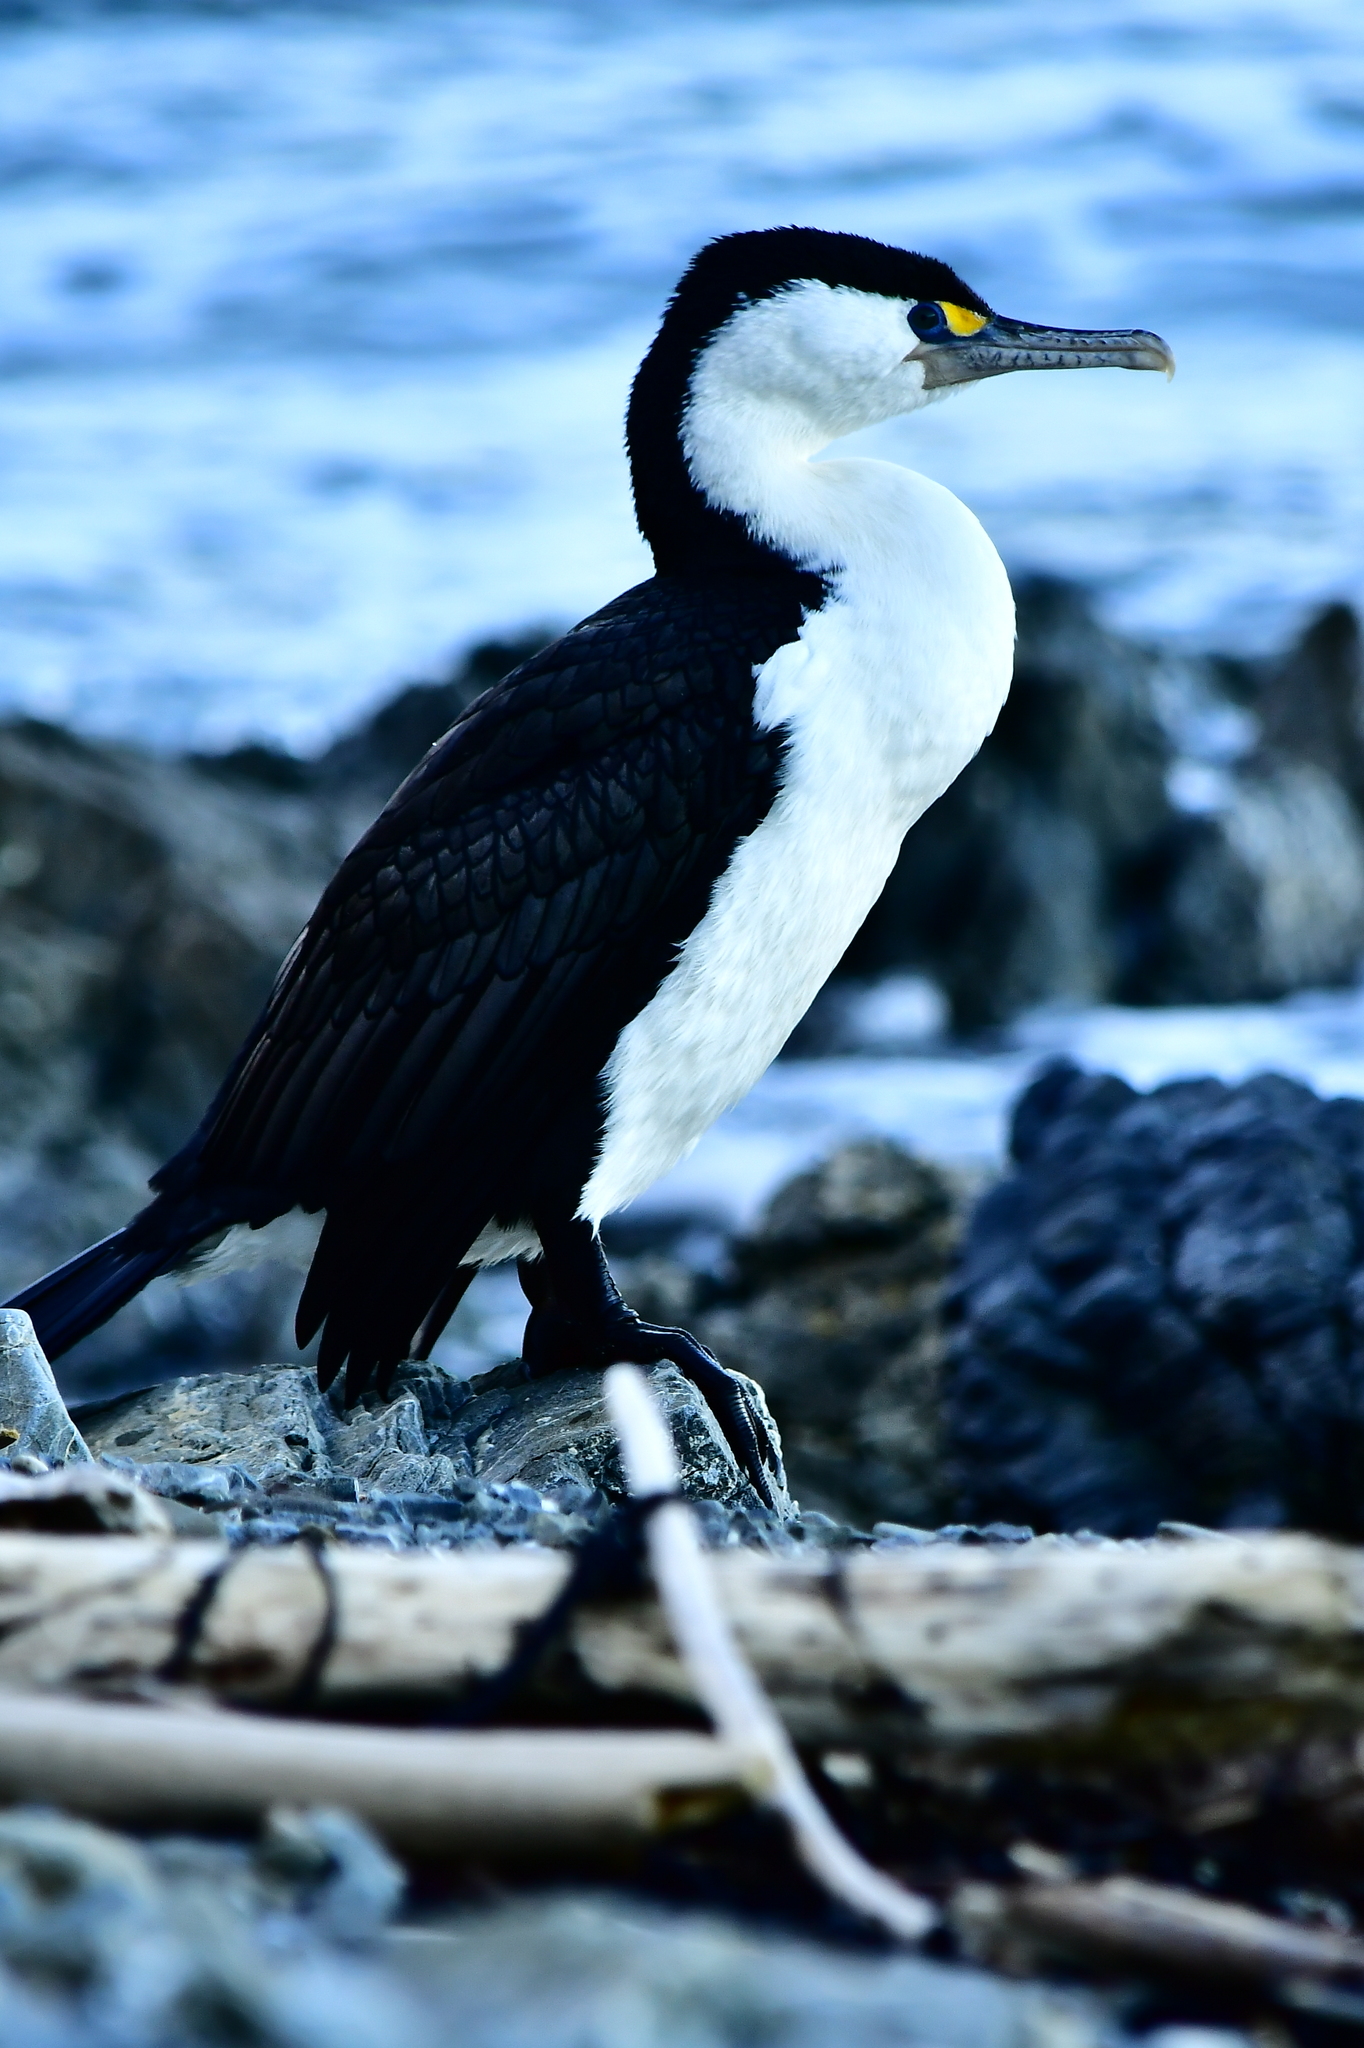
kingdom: Animalia
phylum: Chordata
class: Aves
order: Suliformes
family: Phalacrocoracidae
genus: Phalacrocorax
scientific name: Phalacrocorax varius
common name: Pied cormorant
